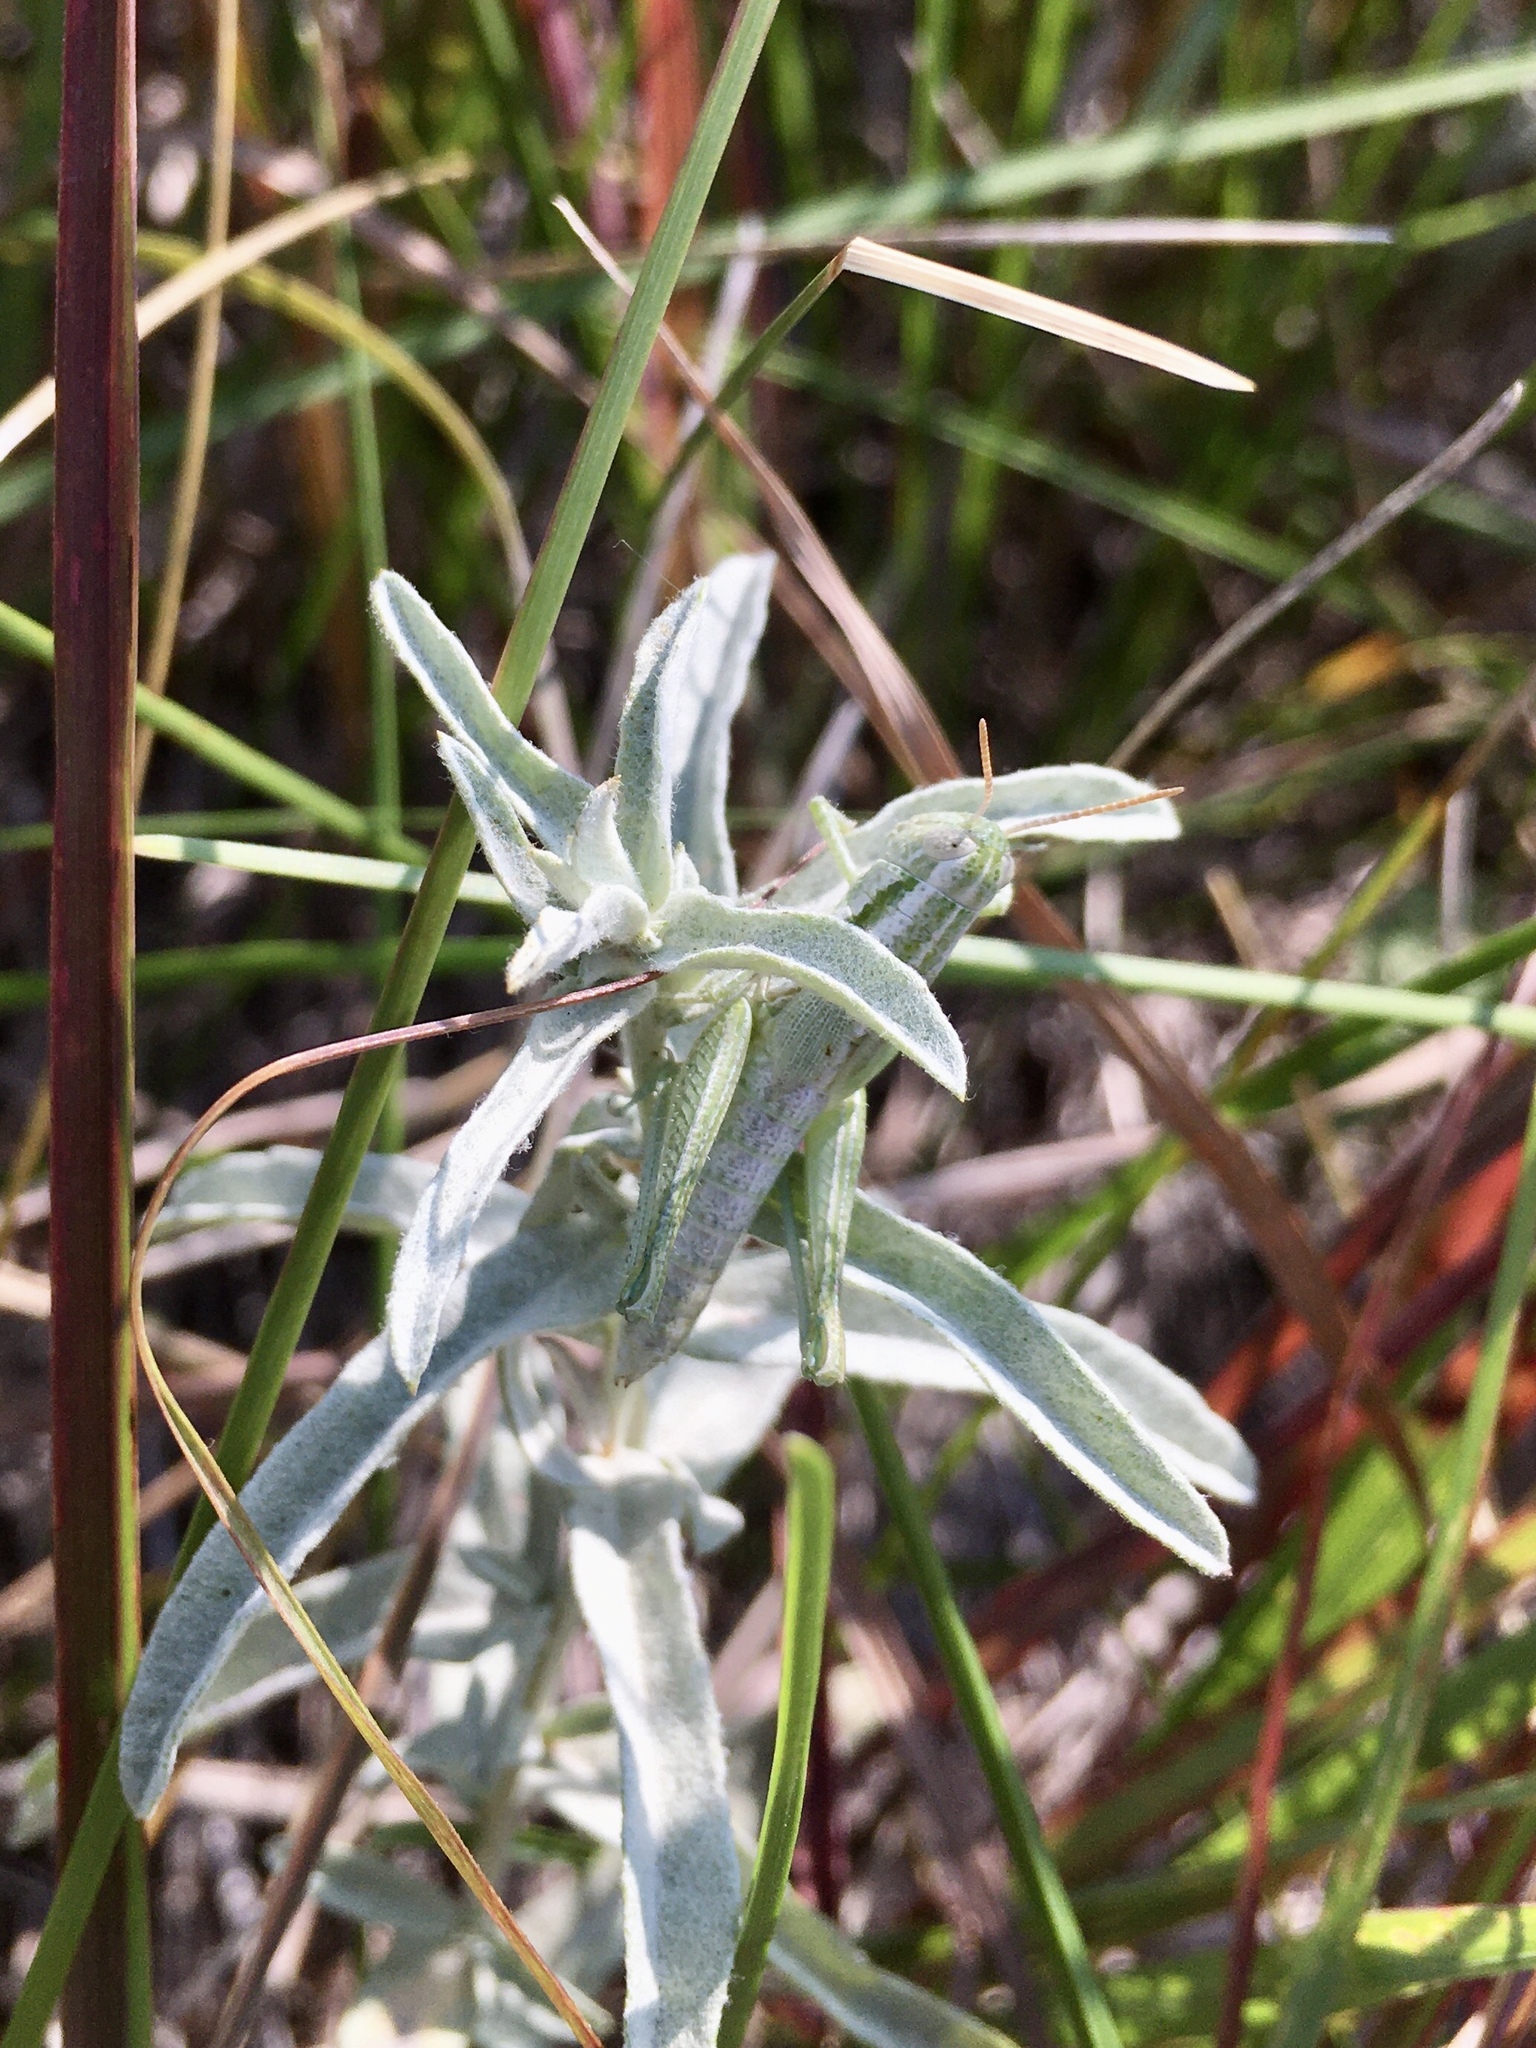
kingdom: Animalia
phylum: Arthropoda
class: Insecta
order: Orthoptera
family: Acrididae
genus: Hypochlora
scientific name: Hypochlora alba
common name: Cudweed grasshopper
